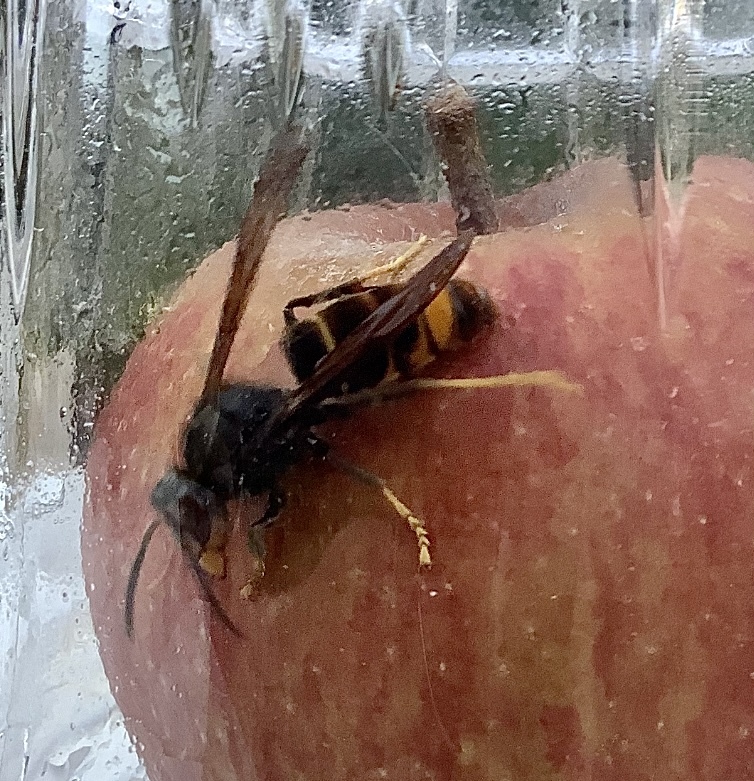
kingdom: Animalia
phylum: Arthropoda
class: Insecta
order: Hymenoptera
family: Vespidae
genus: Vespa
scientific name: Vespa velutina
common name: Asian hornet
